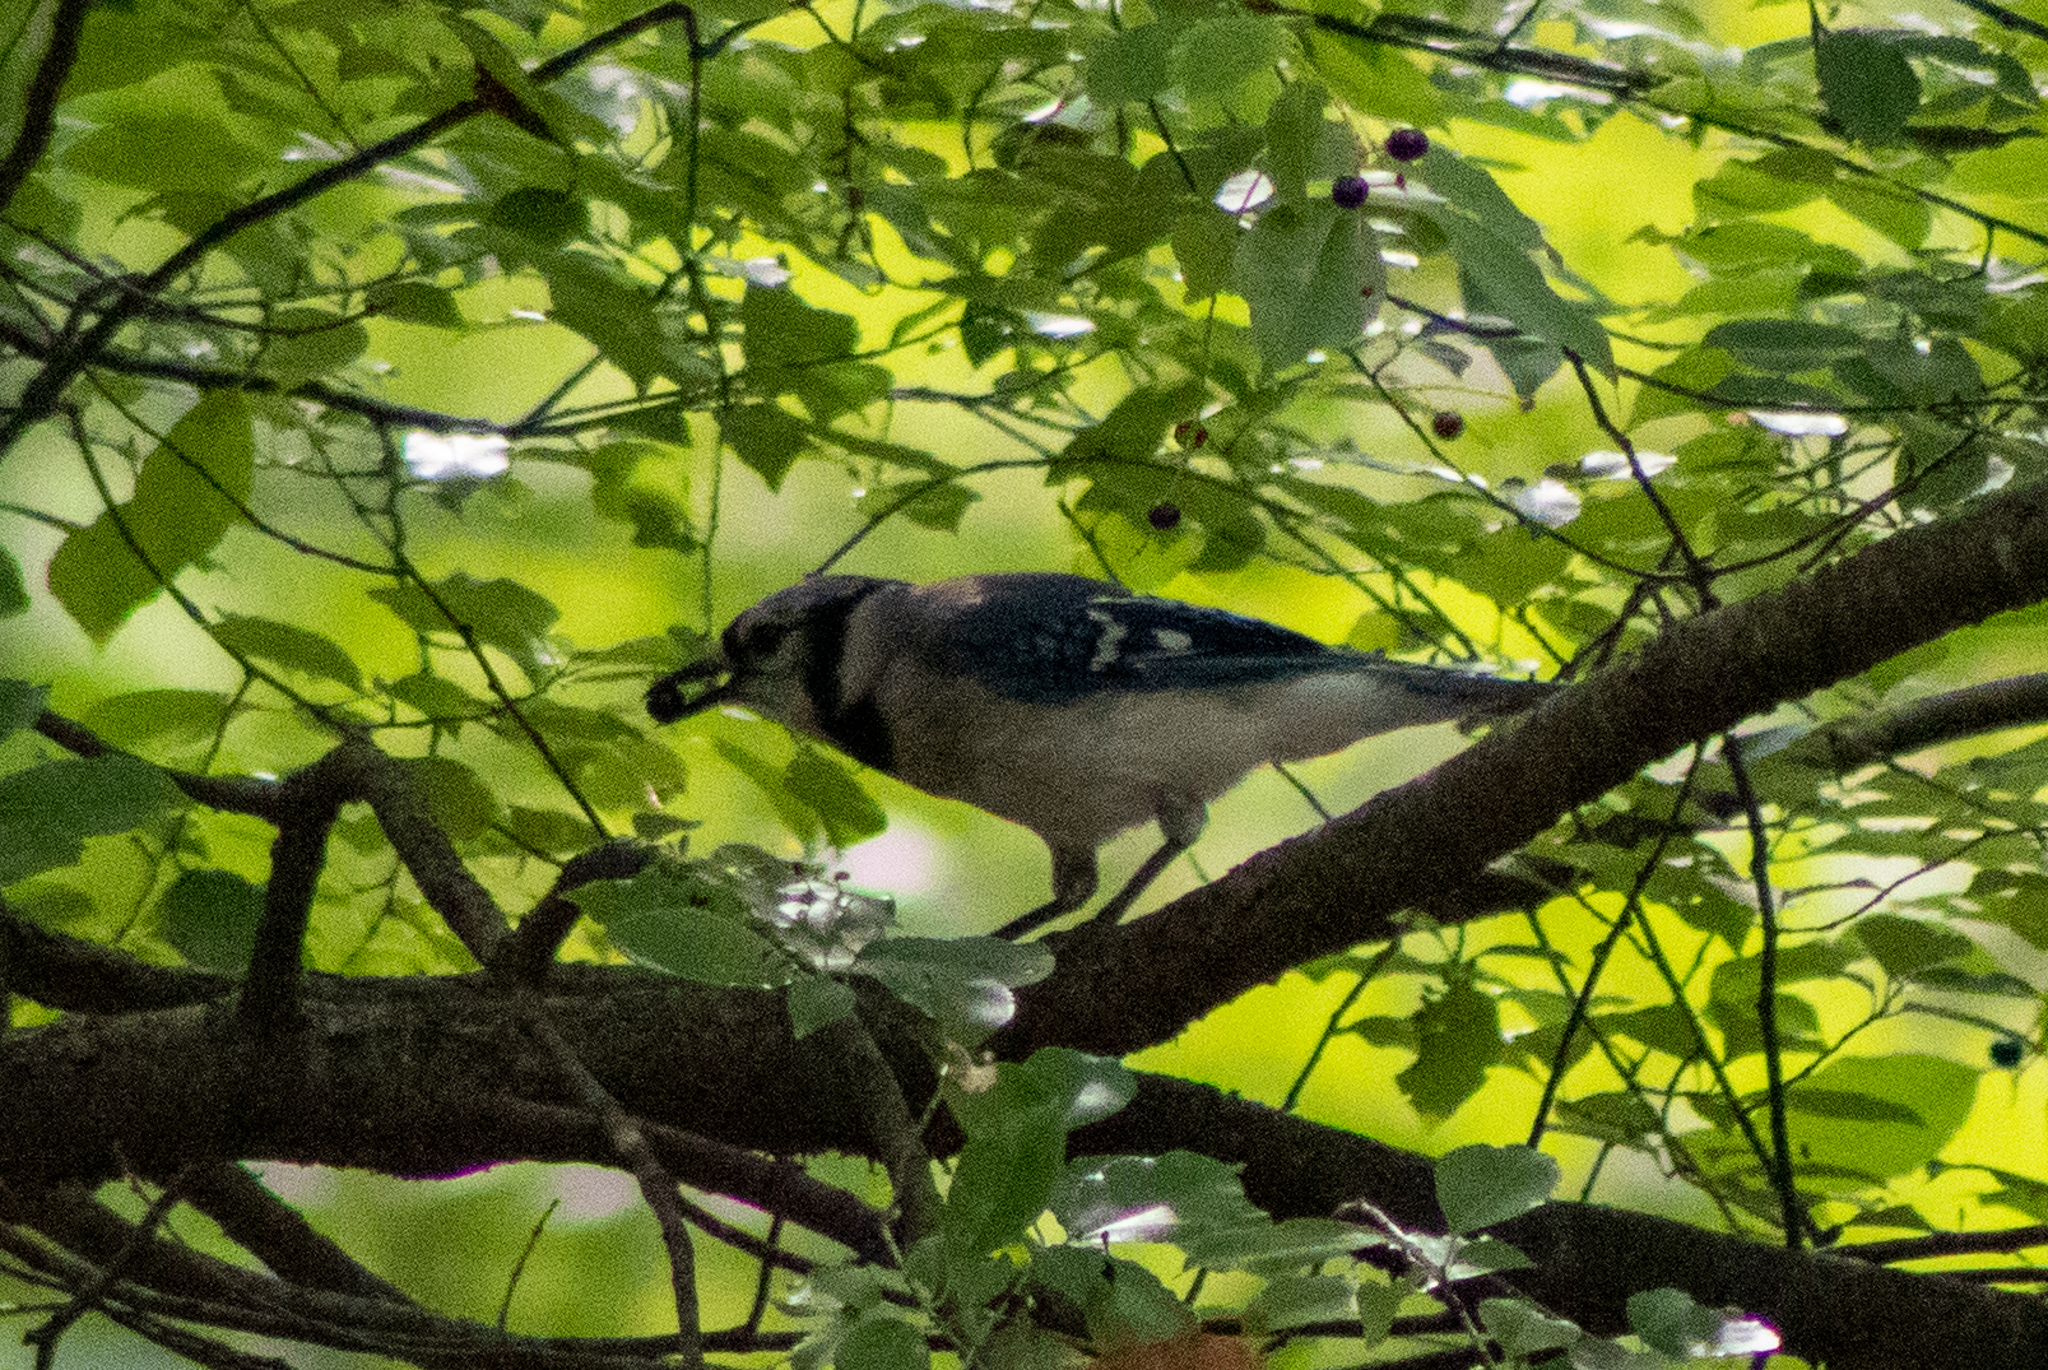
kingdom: Animalia
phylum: Chordata
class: Aves
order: Passeriformes
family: Corvidae
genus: Cyanocitta
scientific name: Cyanocitta cristata
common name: Blue jay
